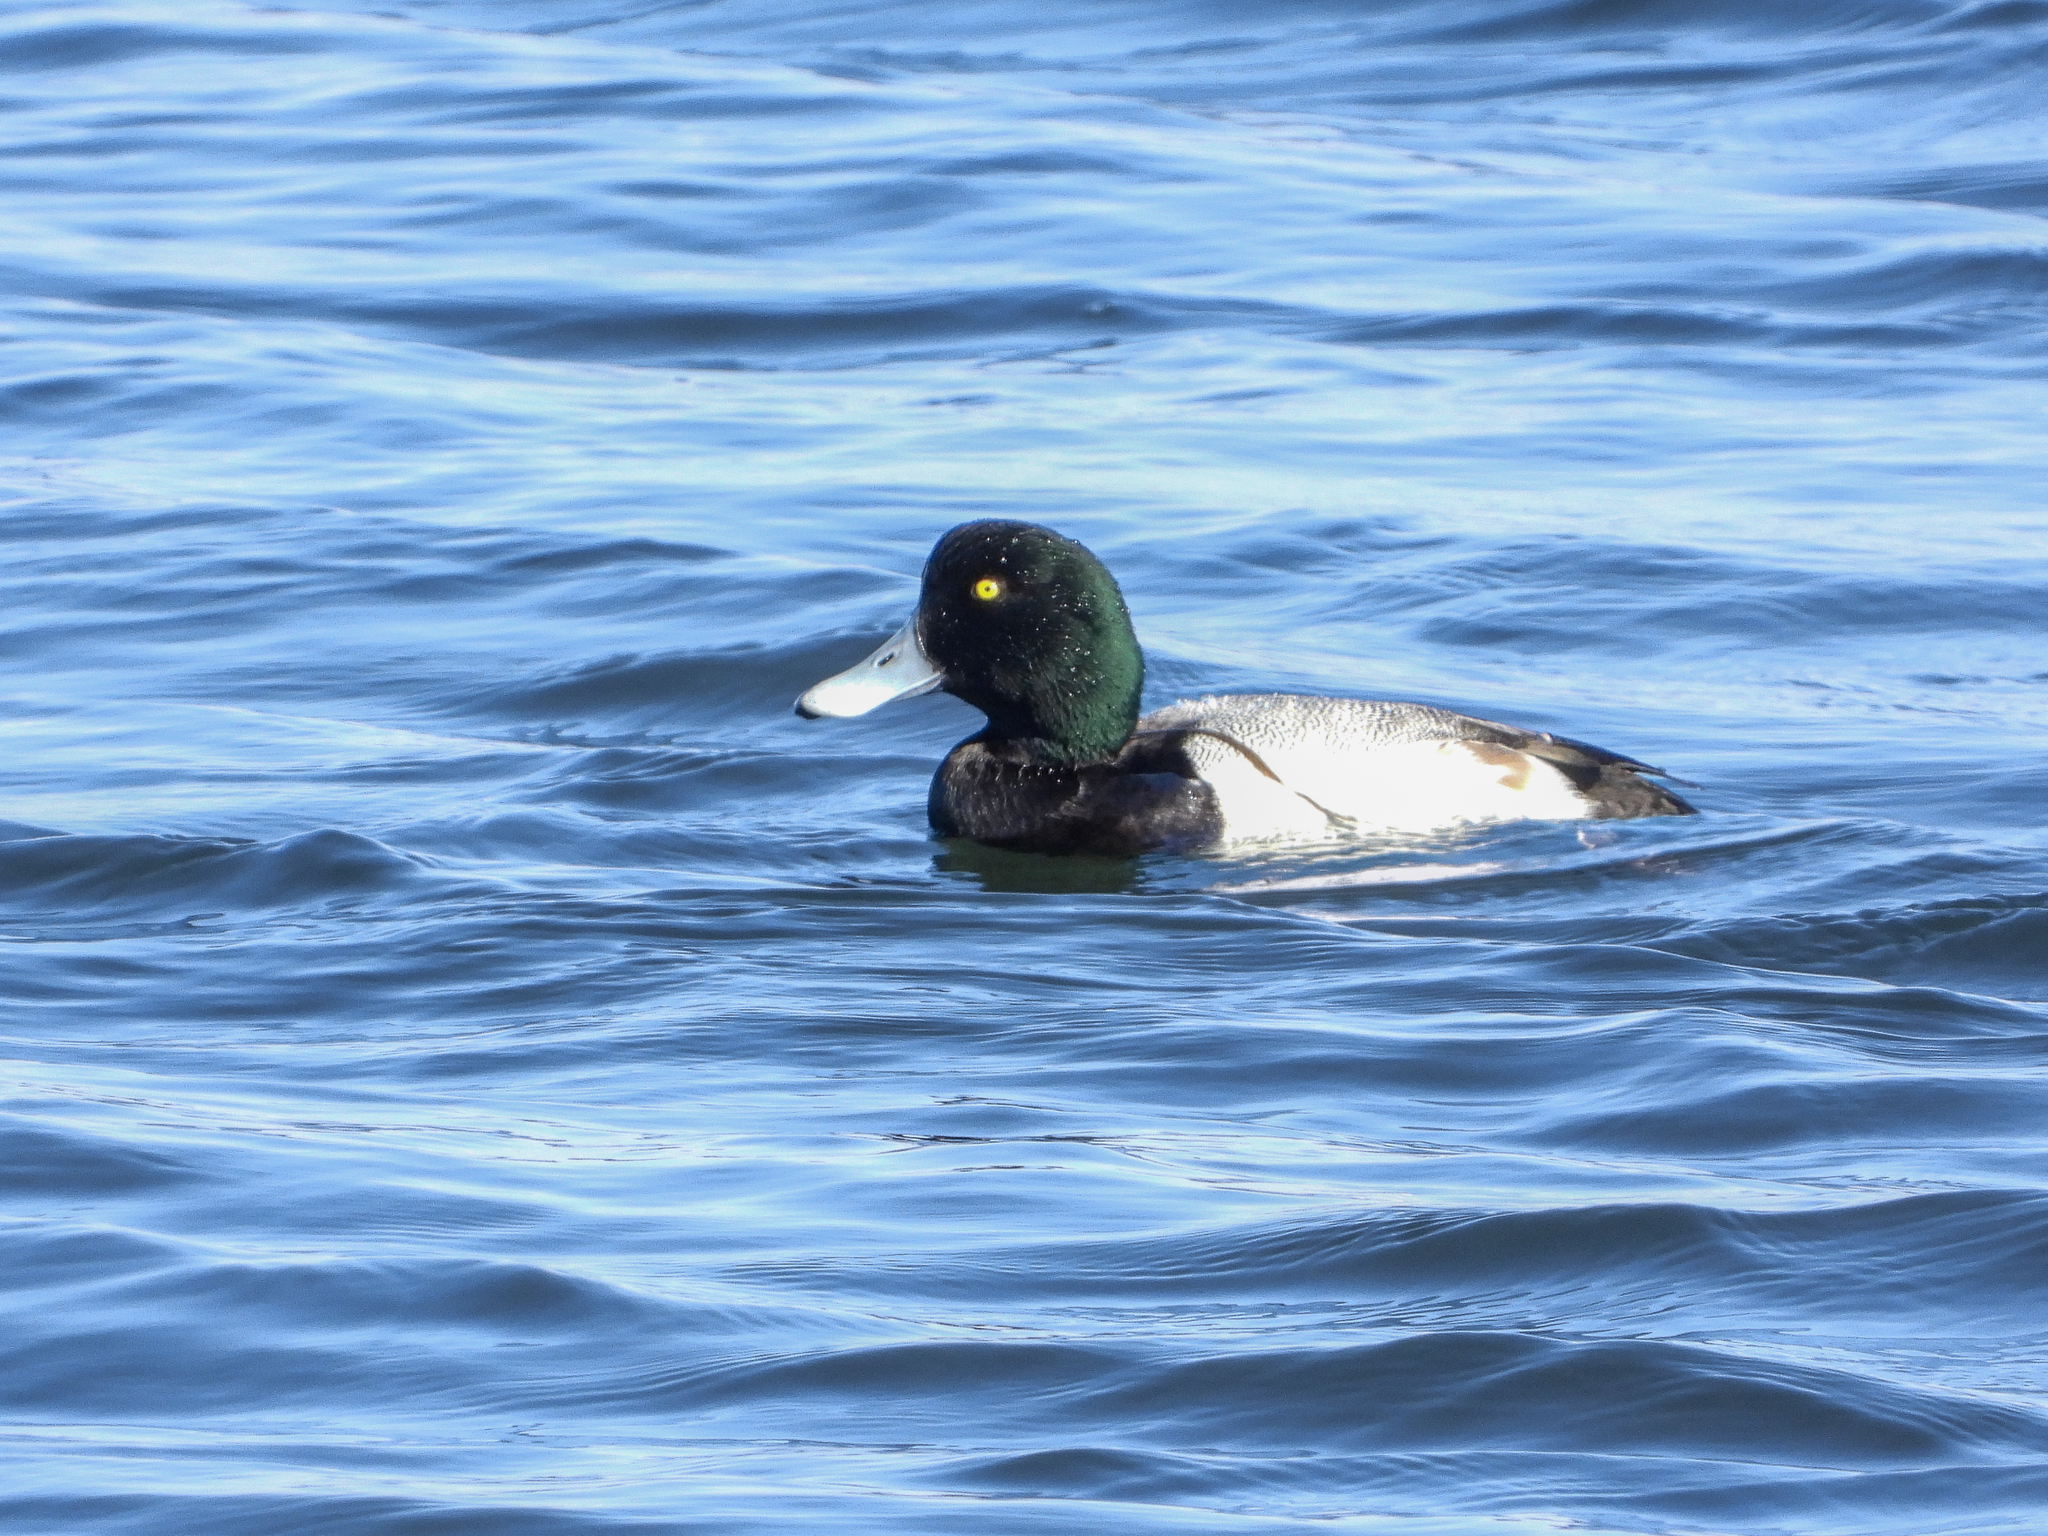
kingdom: Animalia
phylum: Chordata
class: Aves
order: Anseriformes
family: Anatidae
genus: Aythya
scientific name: Aythya marila
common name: Greater scaup
